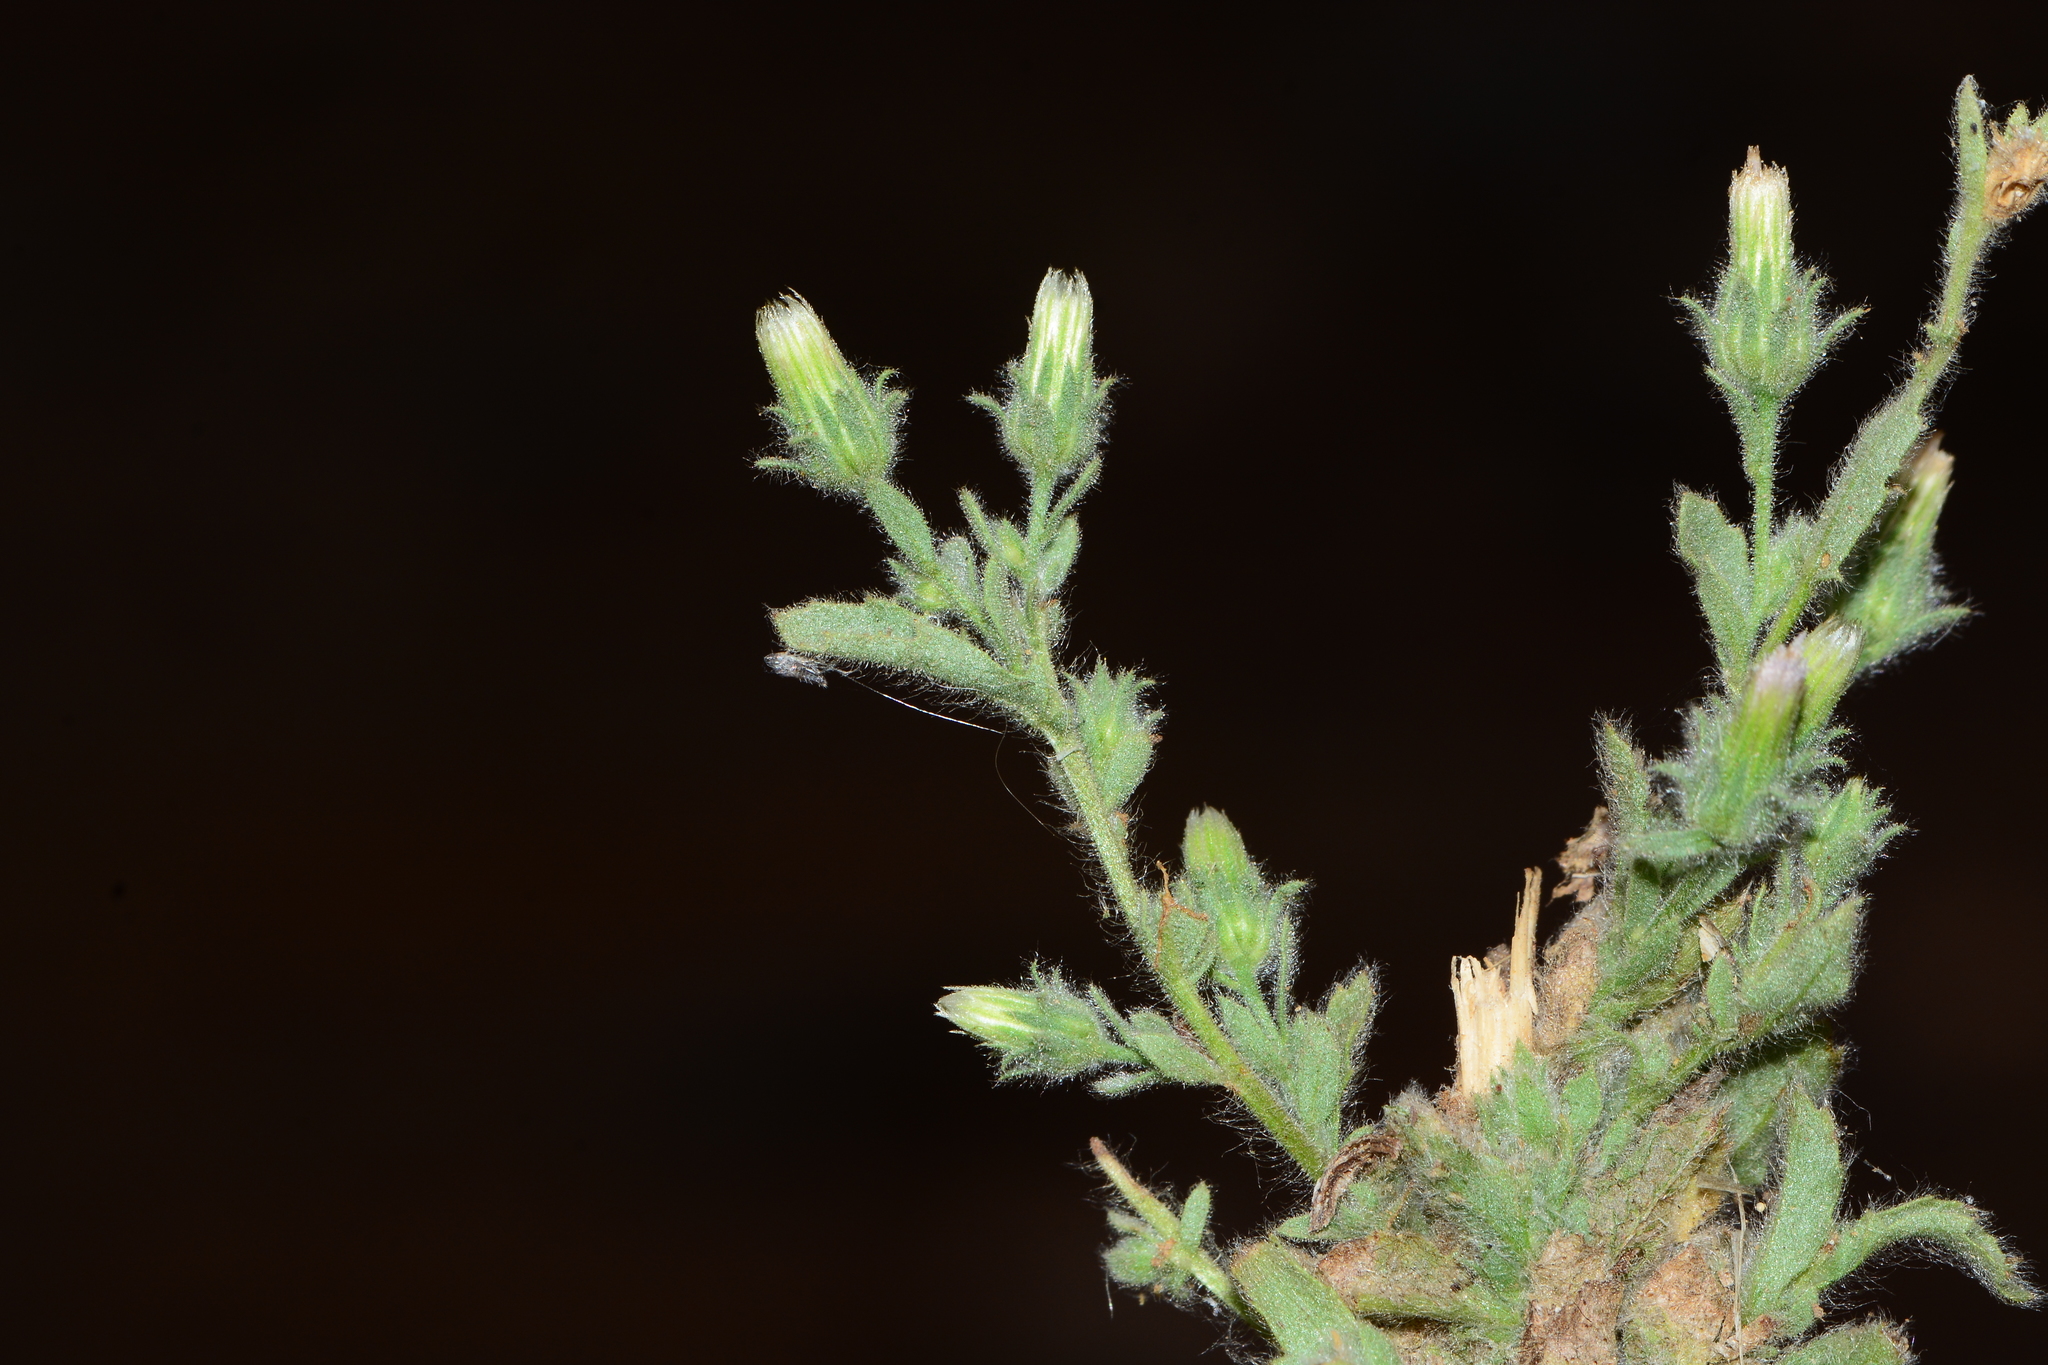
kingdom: Plantae
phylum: Tracheophyta
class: Magnoliopsida
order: Asterales
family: Asteraceae
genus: Pseudoconyza
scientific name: Pseudoconyza viscosa
